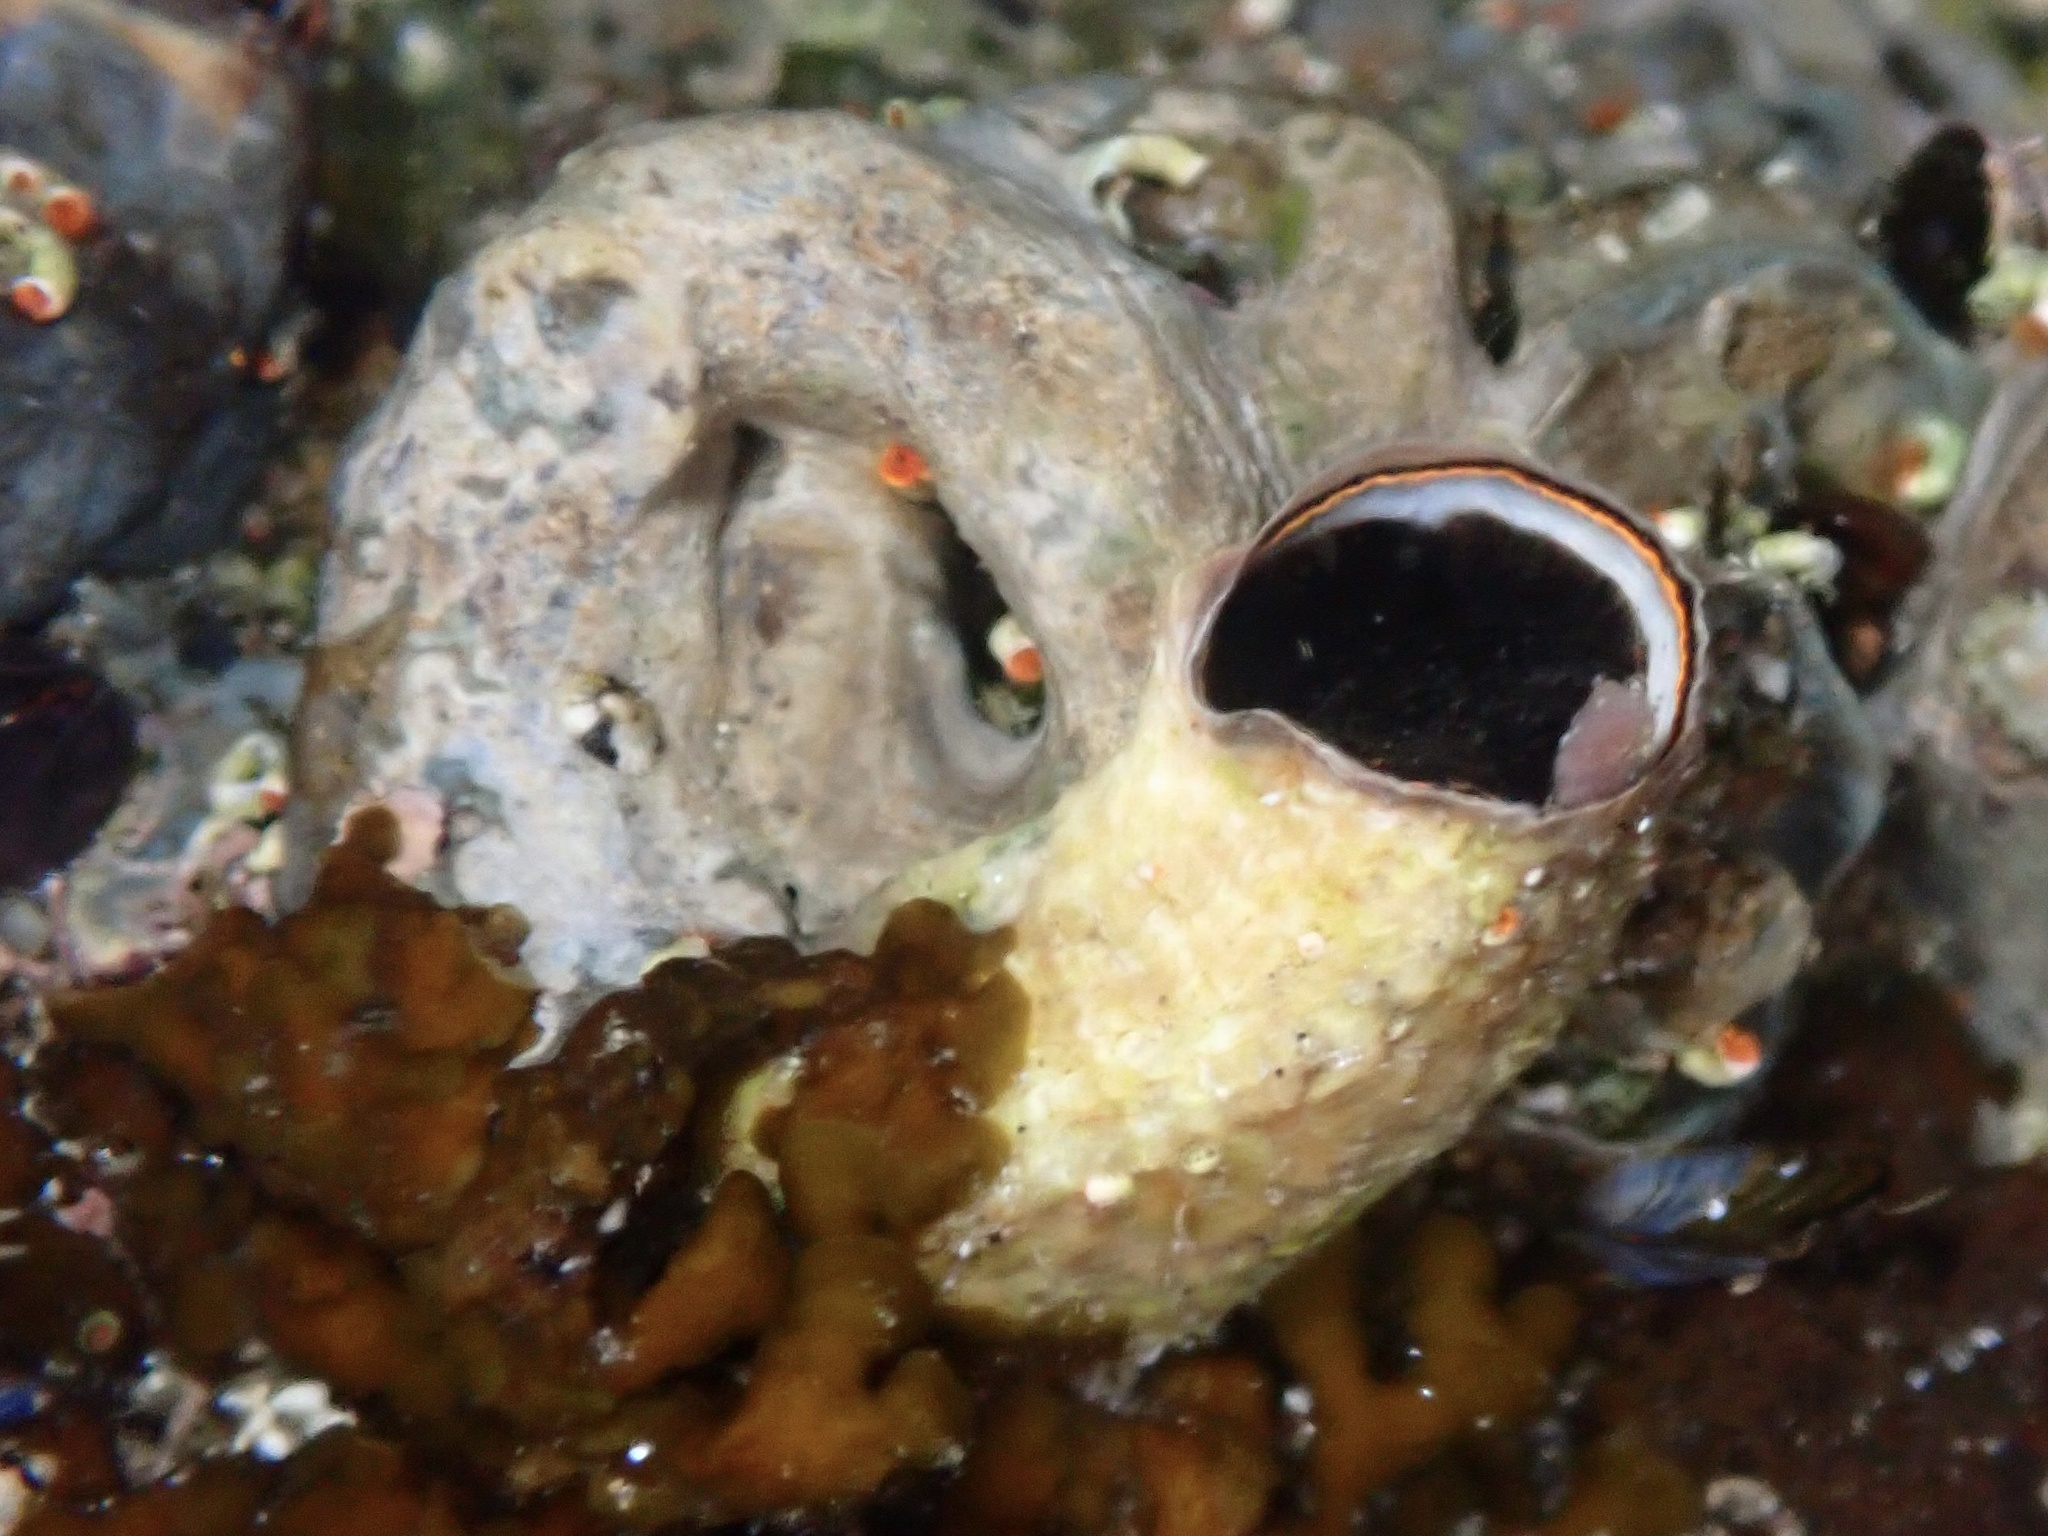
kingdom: Animalia
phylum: Mollusca
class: Gastropoda
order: Littorinimorpha
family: Vermetidae
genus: Thylacodes
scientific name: Thylacodes squamigerus
